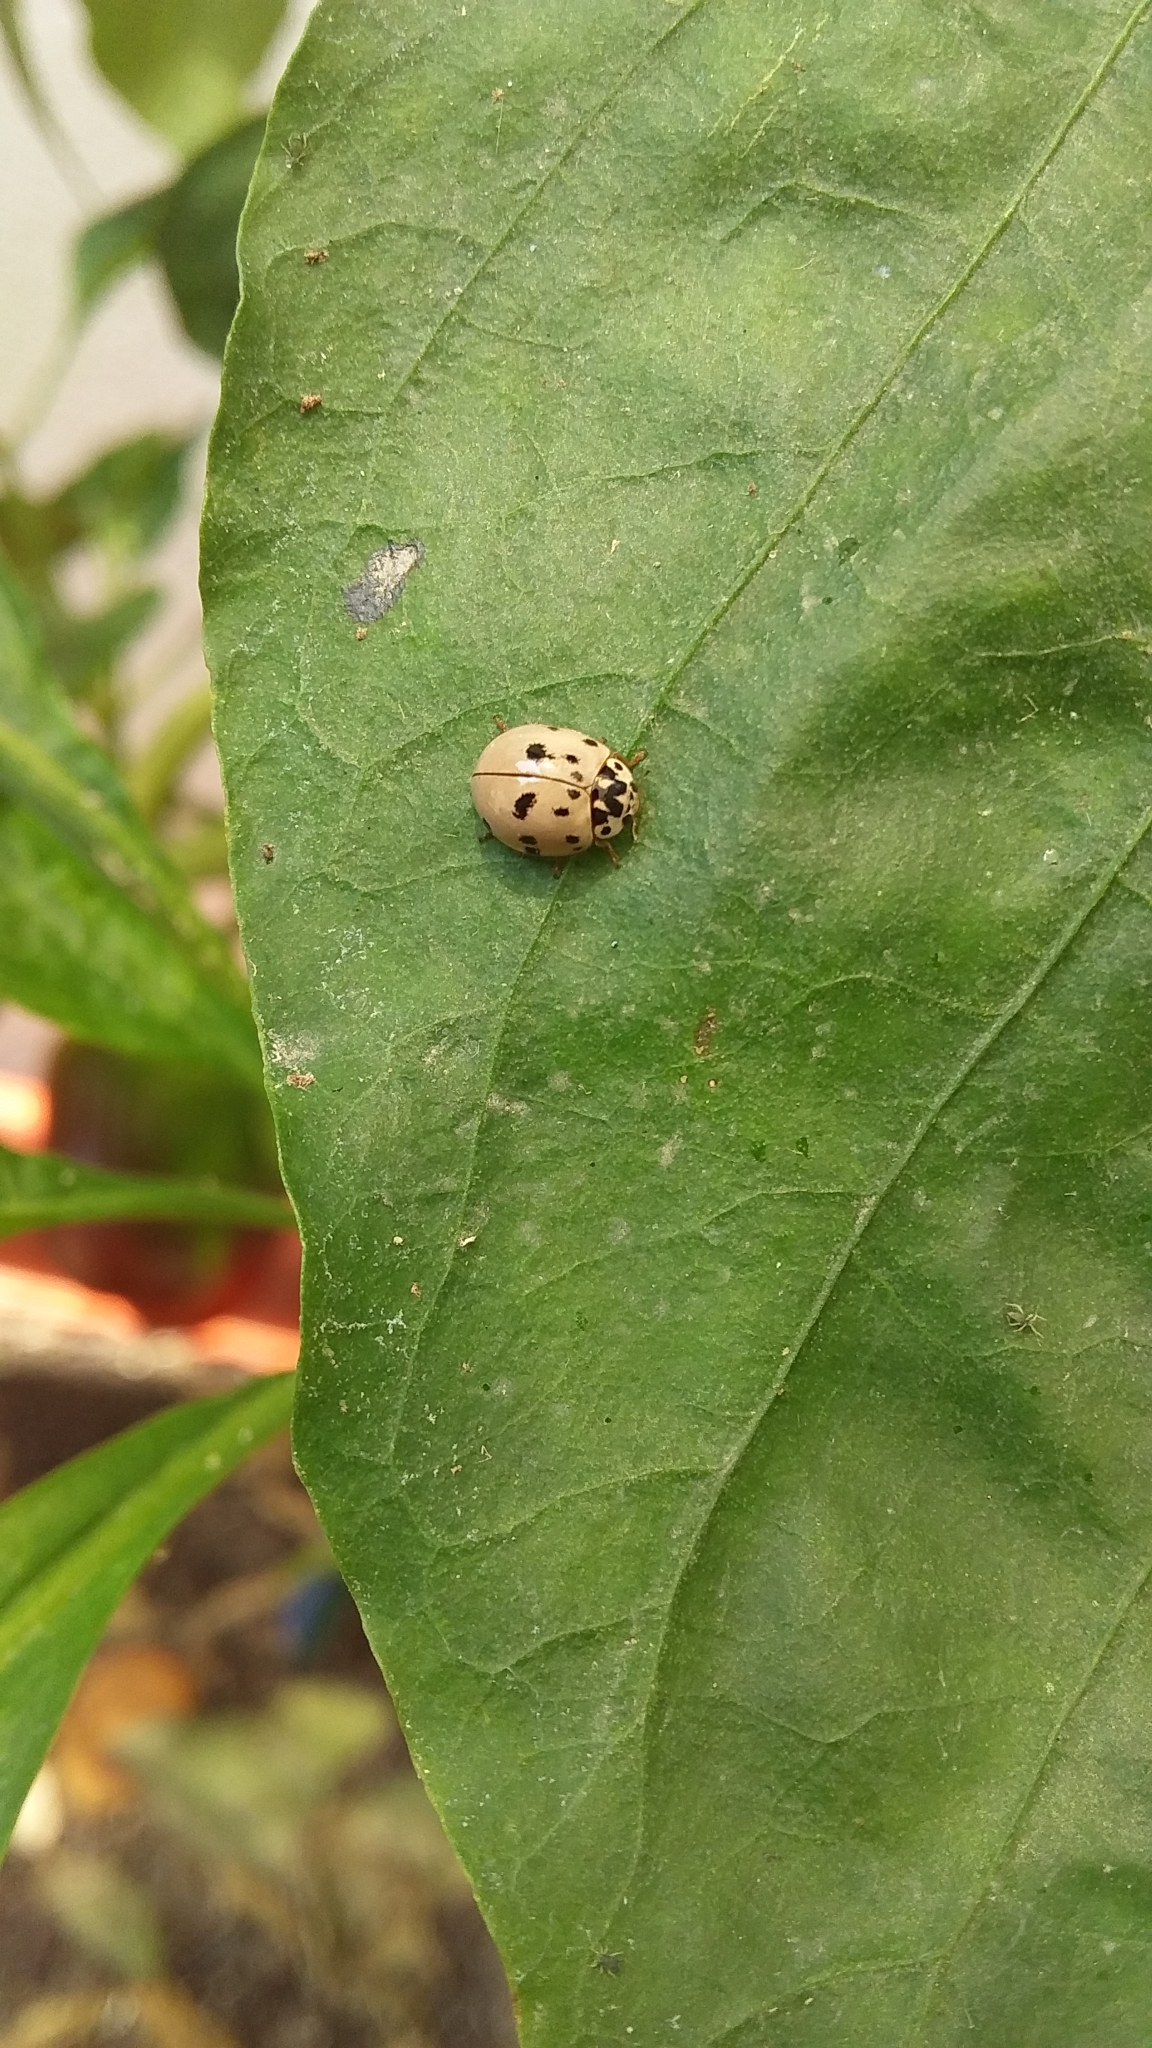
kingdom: Animalia
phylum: Arthropoda
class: Insecta
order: Coleoptera
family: Coccinellidae
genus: Olla
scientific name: Olla v-nigrum
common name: Ashy gray lady beetle
